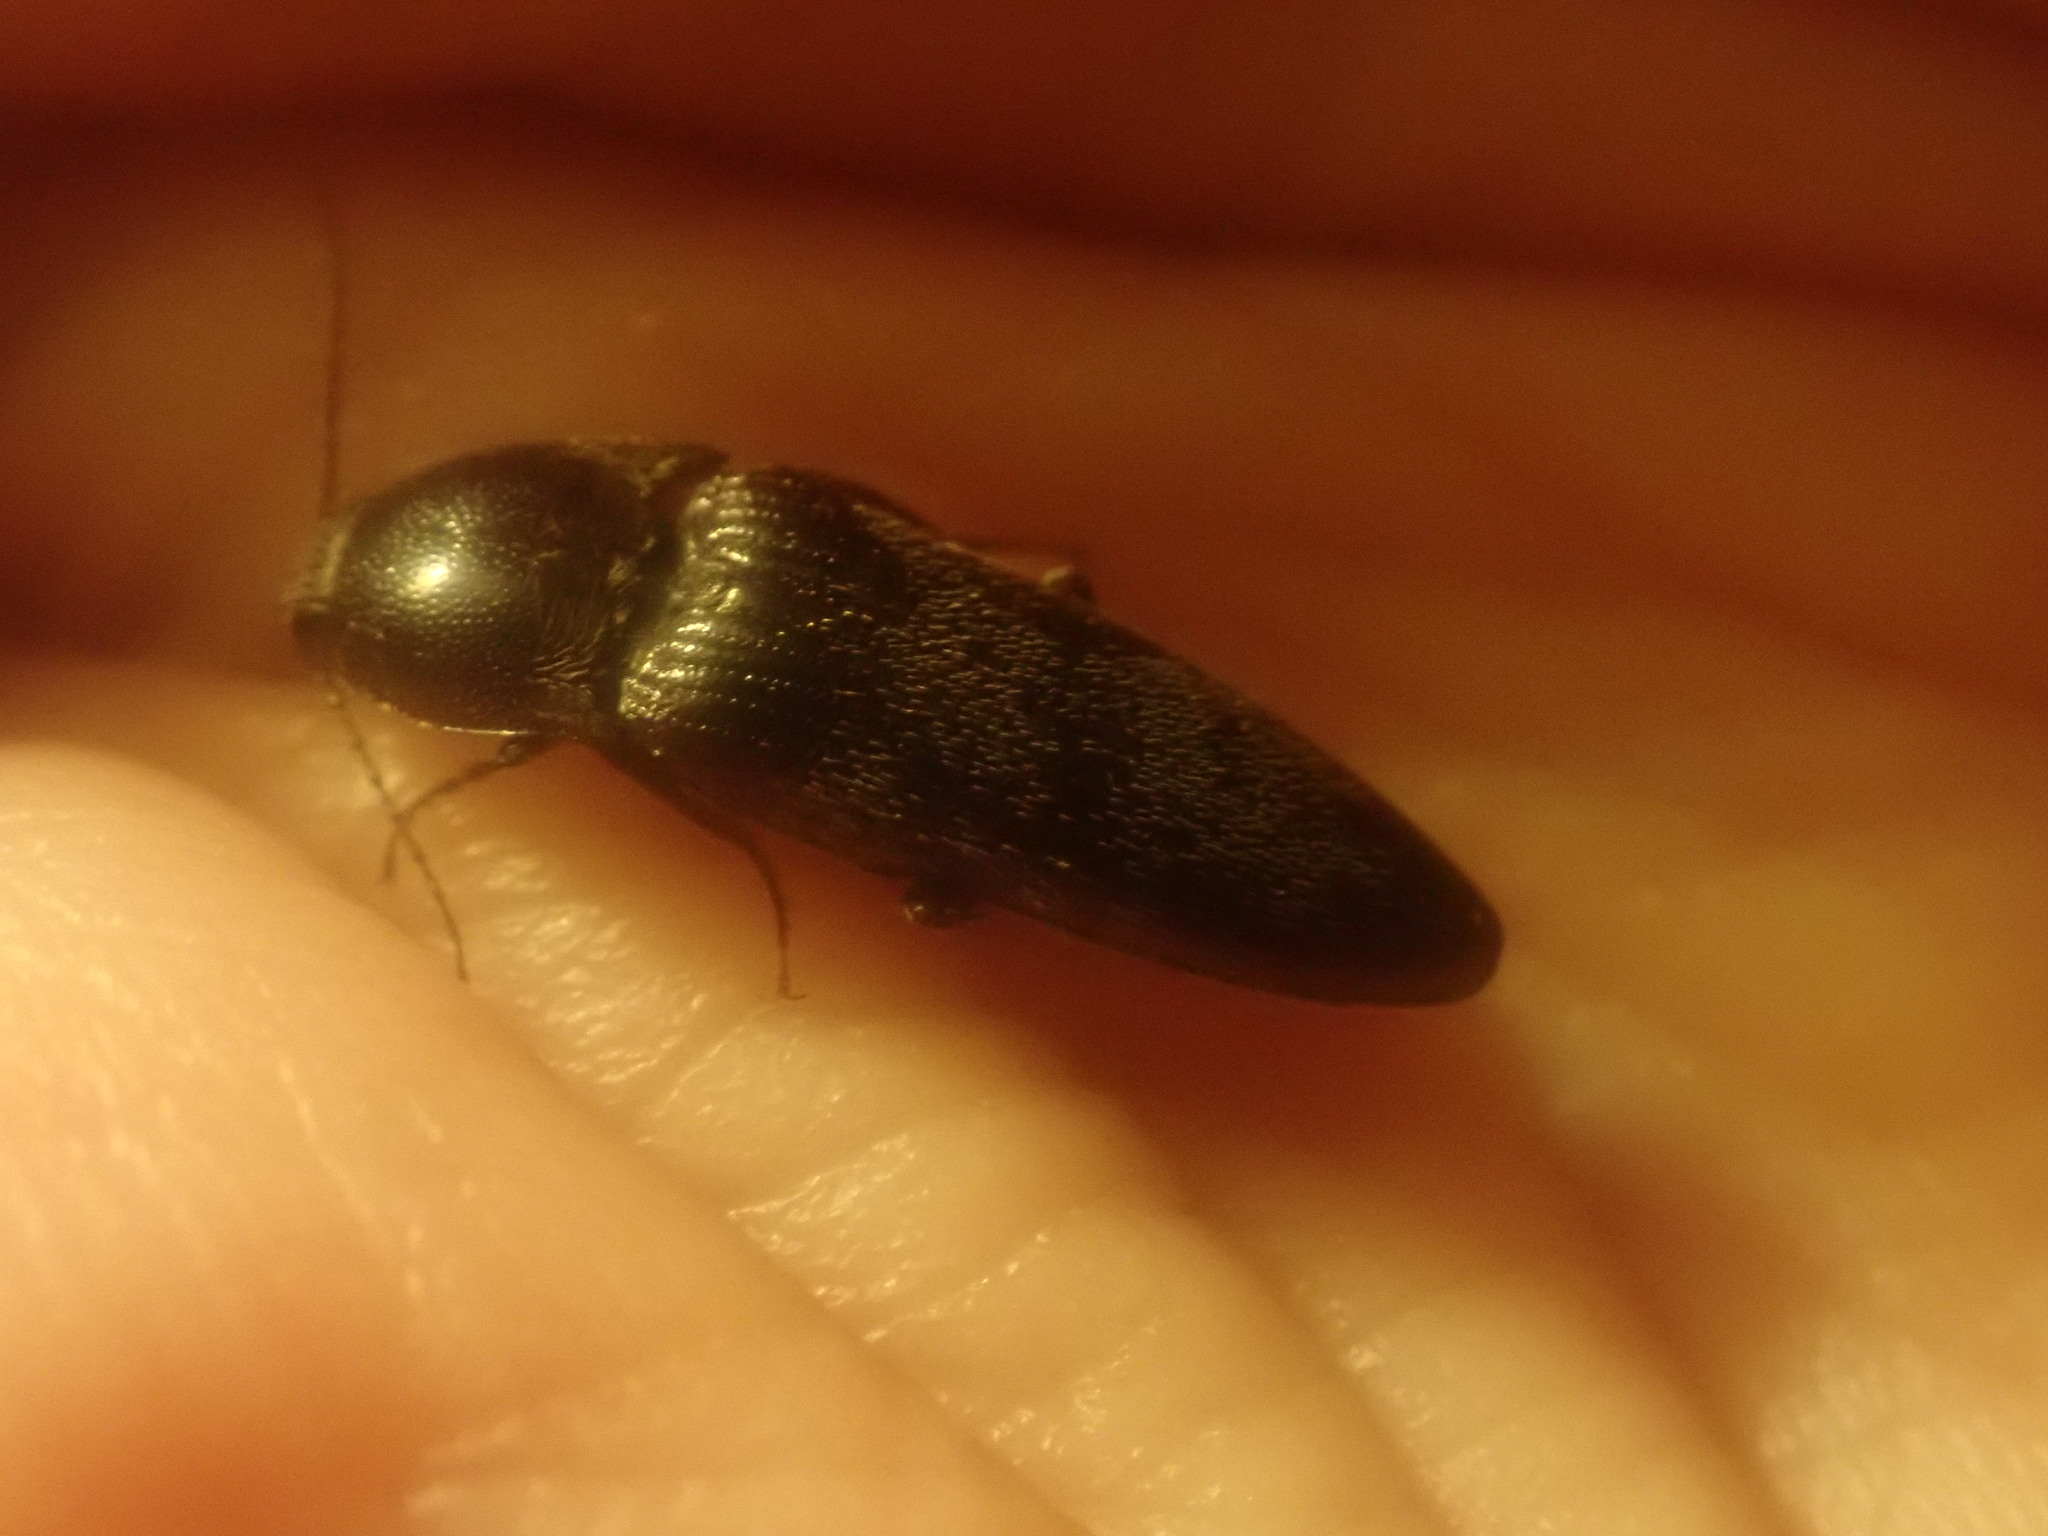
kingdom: Animalia
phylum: Arthropoda
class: Insecta
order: Coleoptera
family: Elateridae
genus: Melanotus
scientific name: Melanotus
